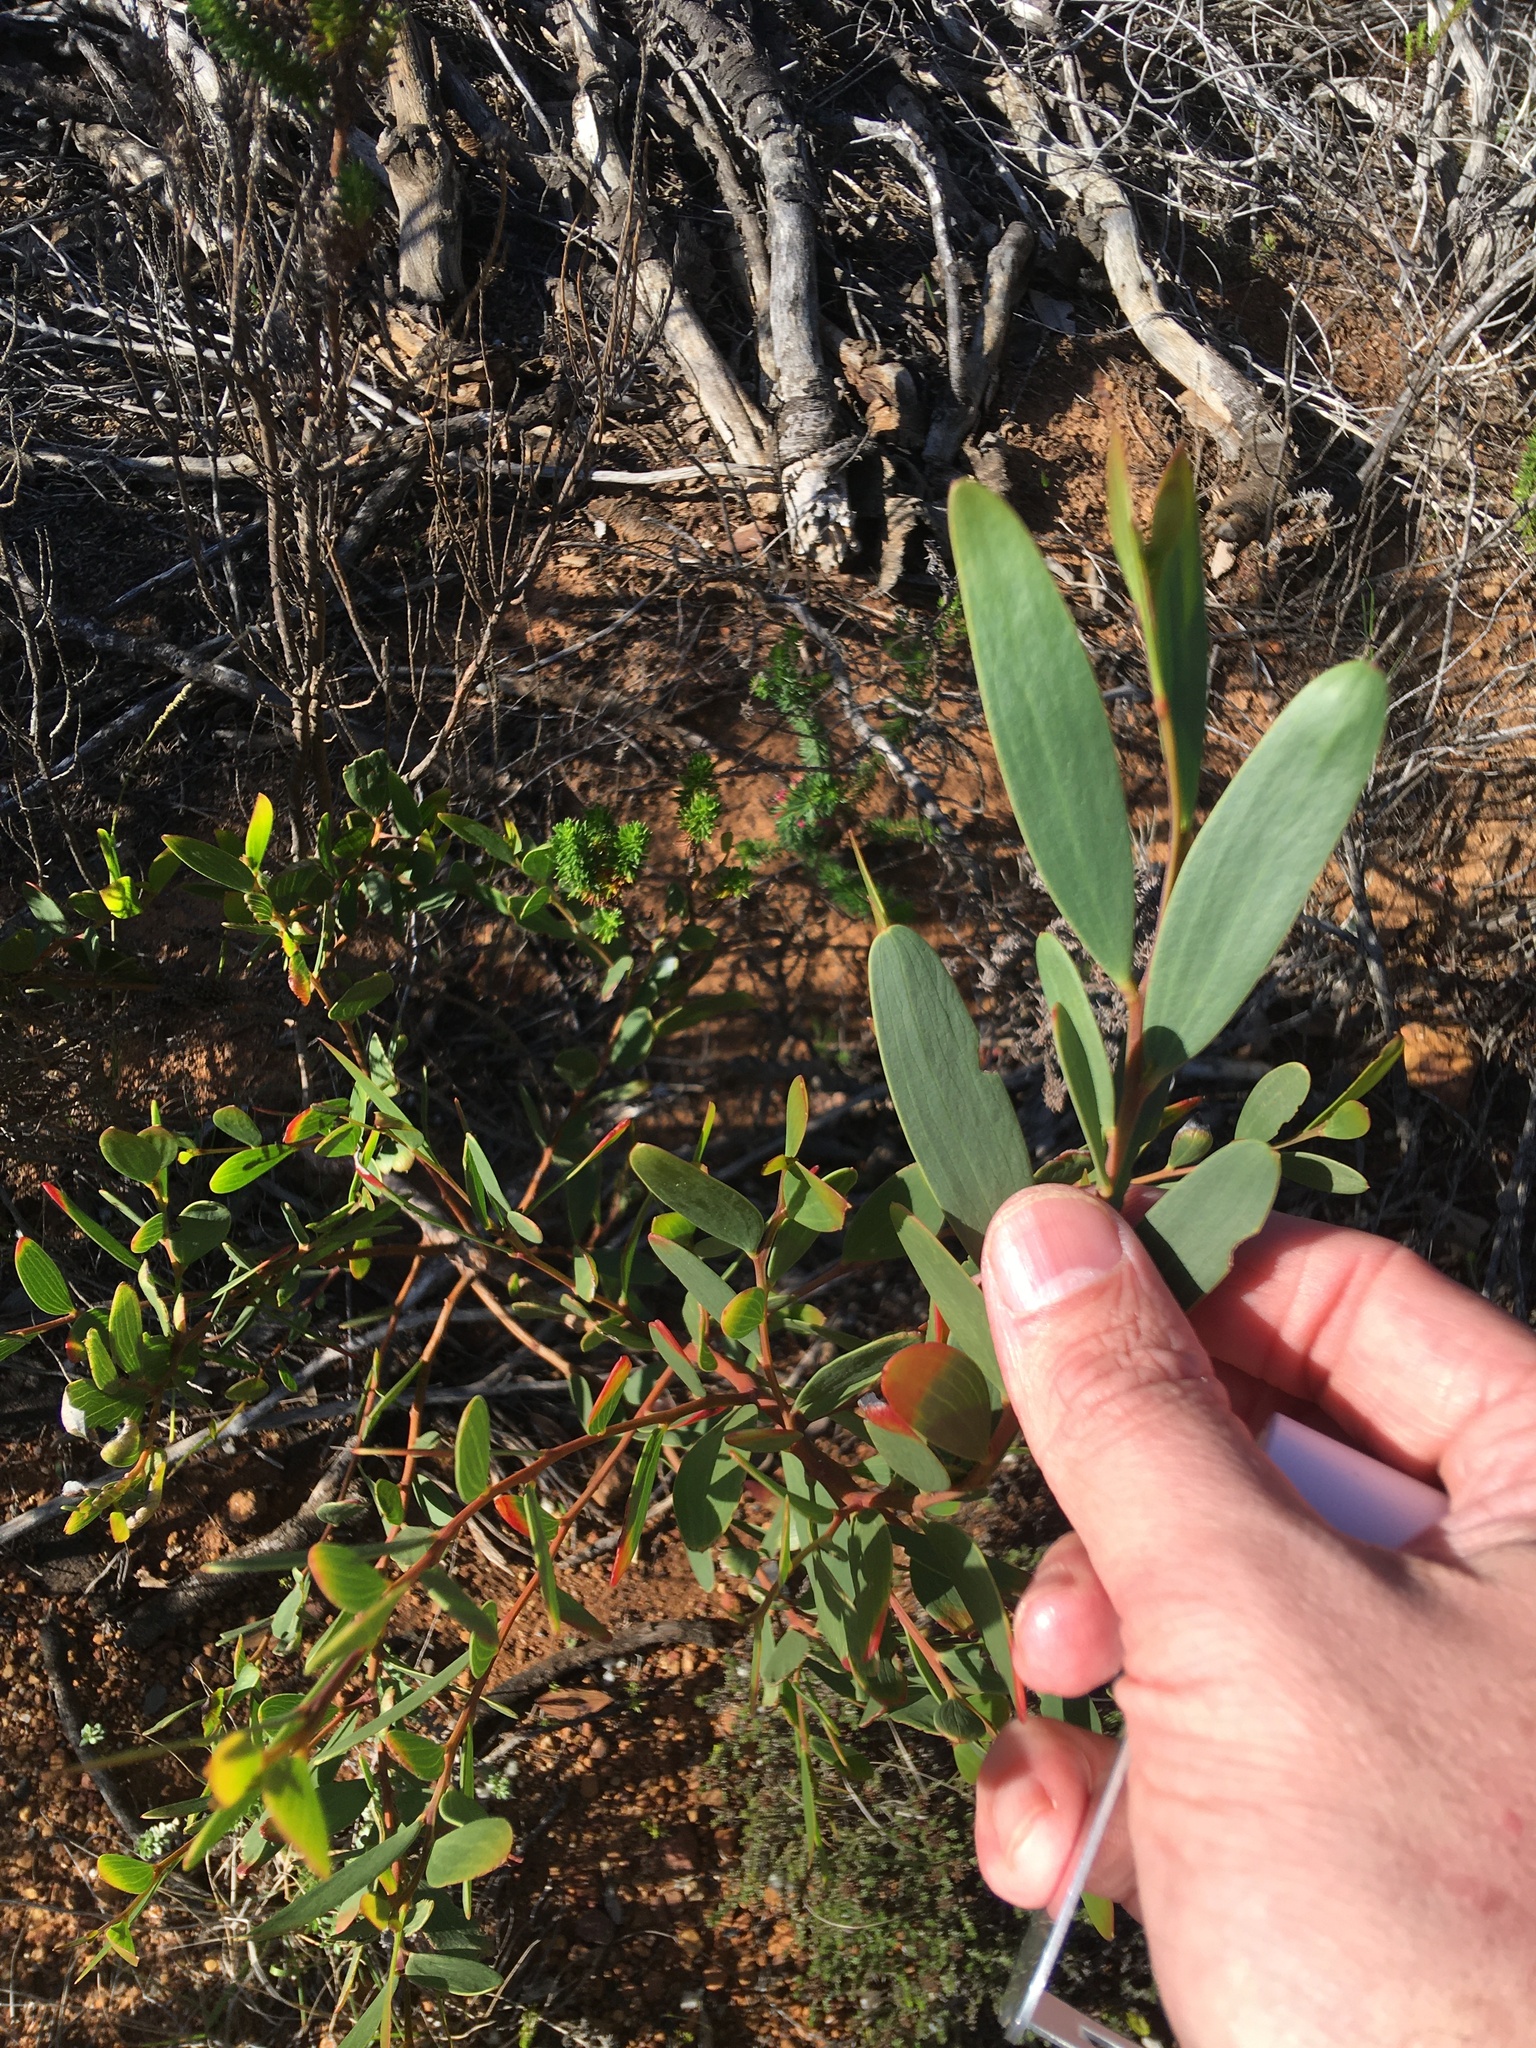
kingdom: Plantae
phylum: Tracheophyta
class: Magnoliopsida
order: Fabales
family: Fabaceae
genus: Acacia
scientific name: Acacia cyclops
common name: Coastal wattle
